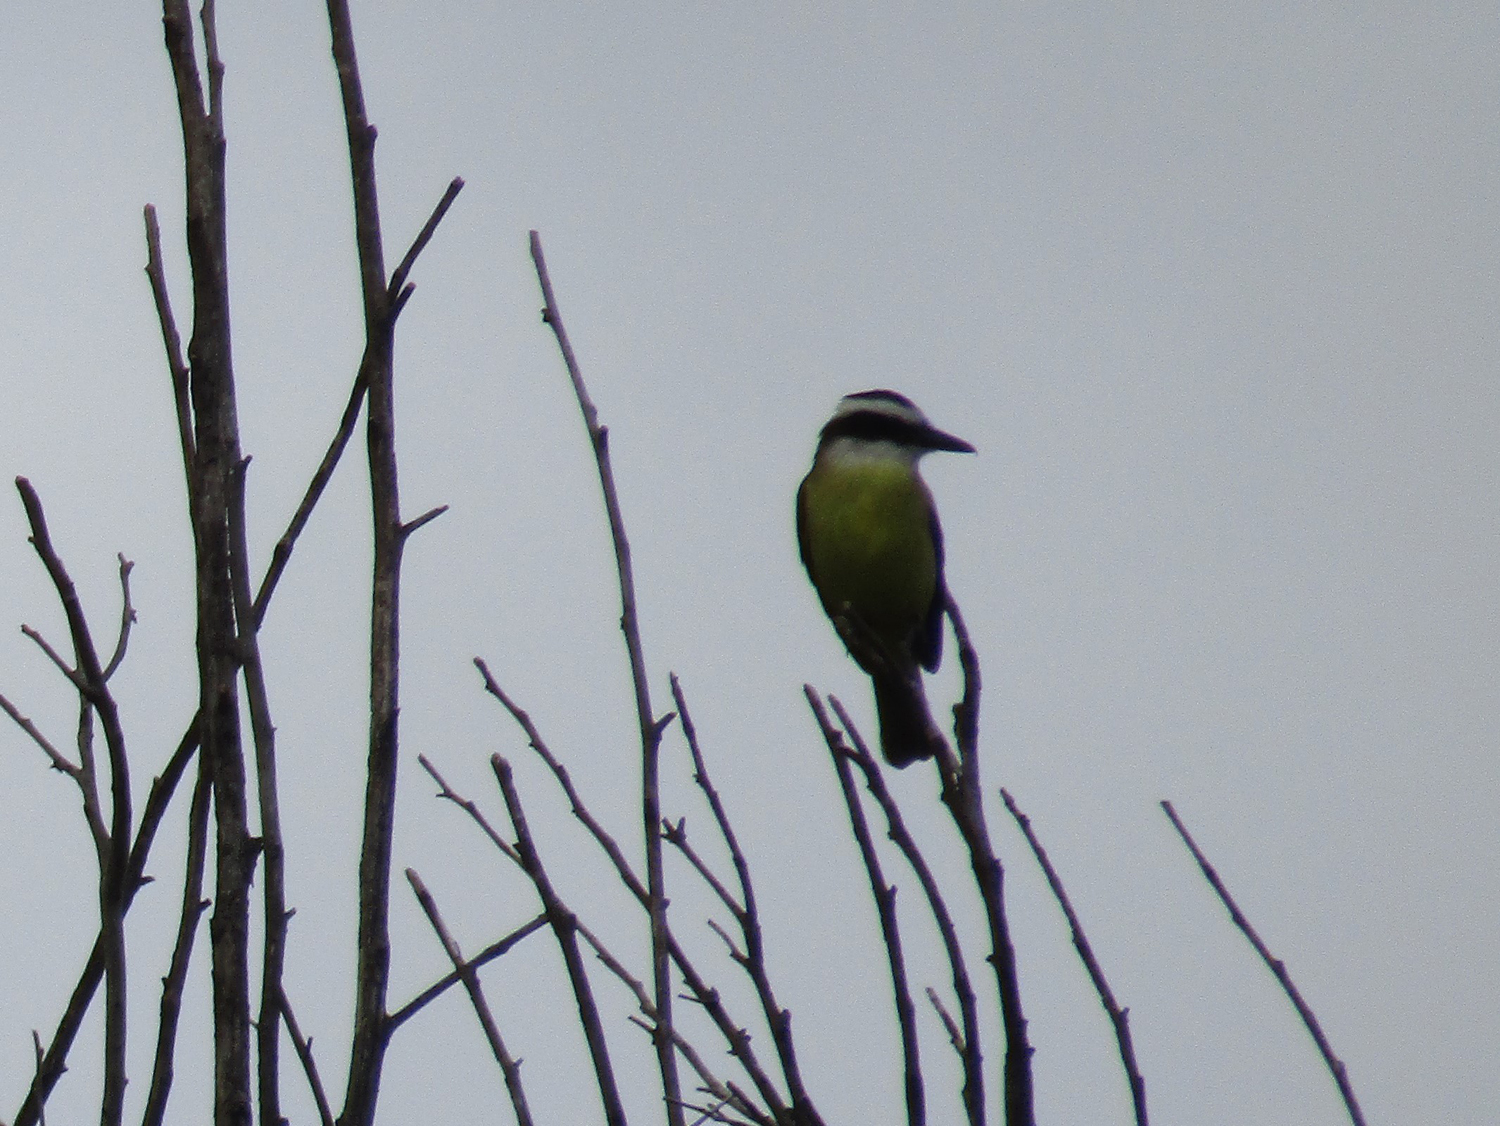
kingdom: Animalia
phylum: Chordata
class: Aves
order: Passeriformes
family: Tyrannidae
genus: Pitangus
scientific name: Pitangus sulphuratus
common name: Great kiskadee
